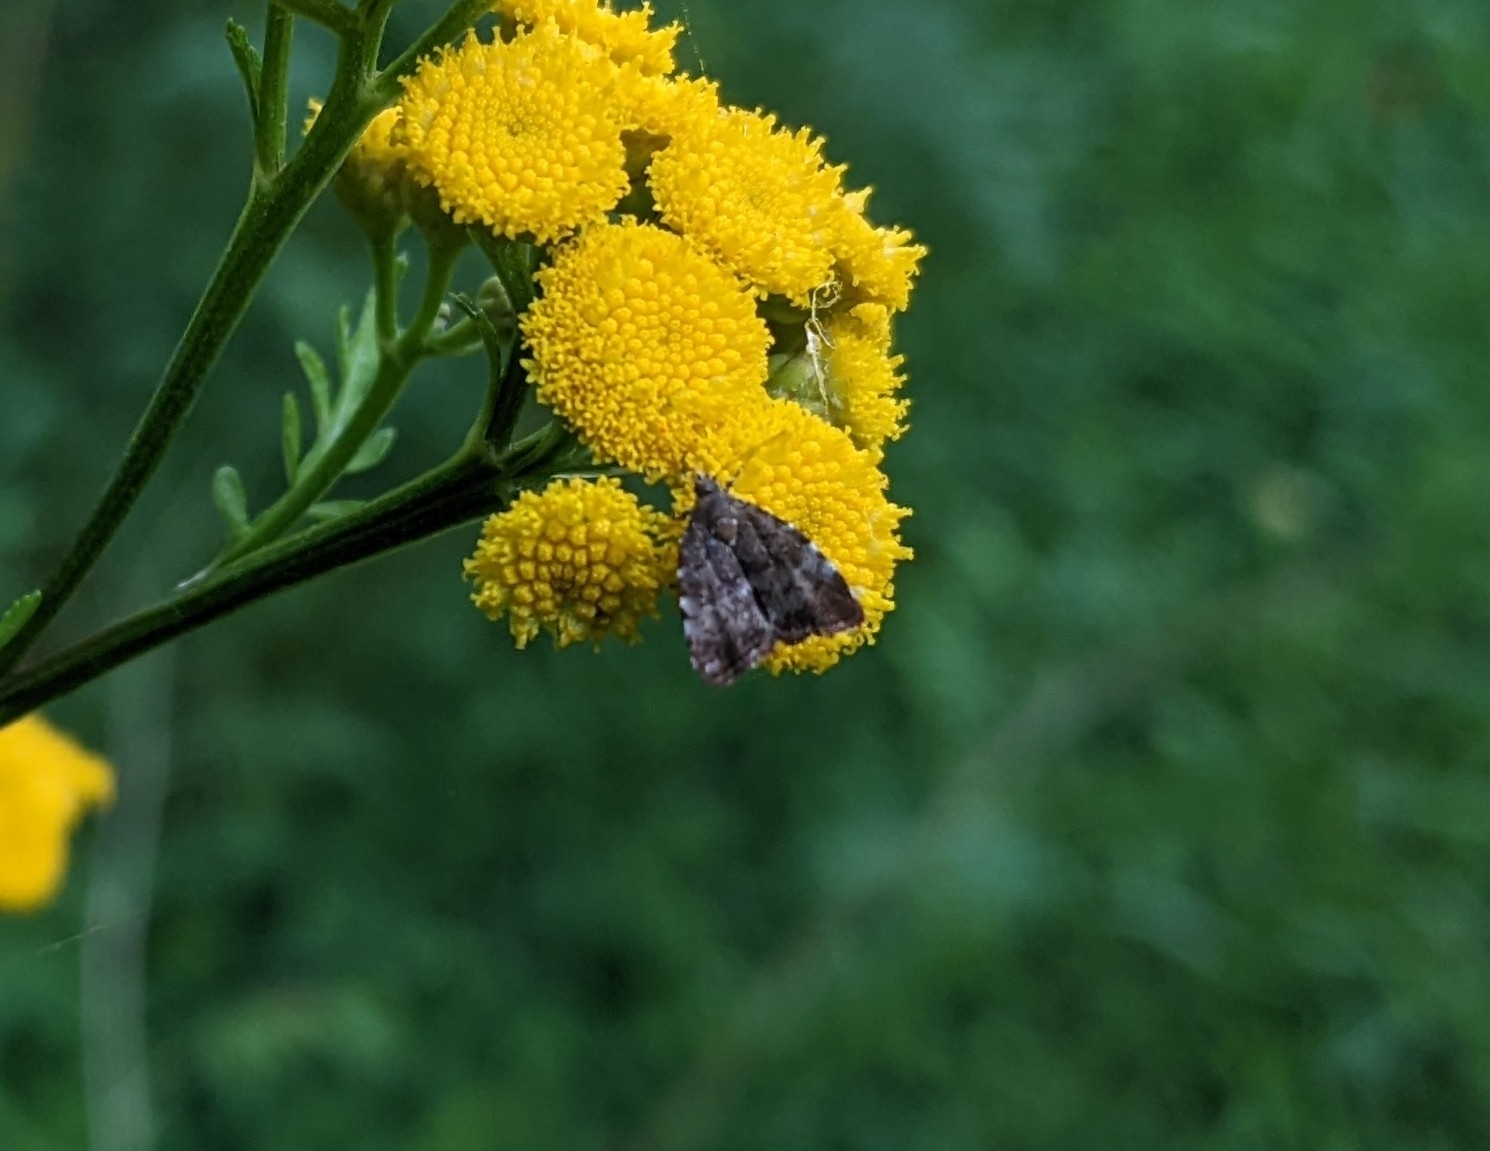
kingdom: Animalia
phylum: Arthropoda
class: Insecta
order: Lepidoptera
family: Choreutidae
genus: Choreutis
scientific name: Choreutis pariana
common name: Apple leaf skeletoniser
